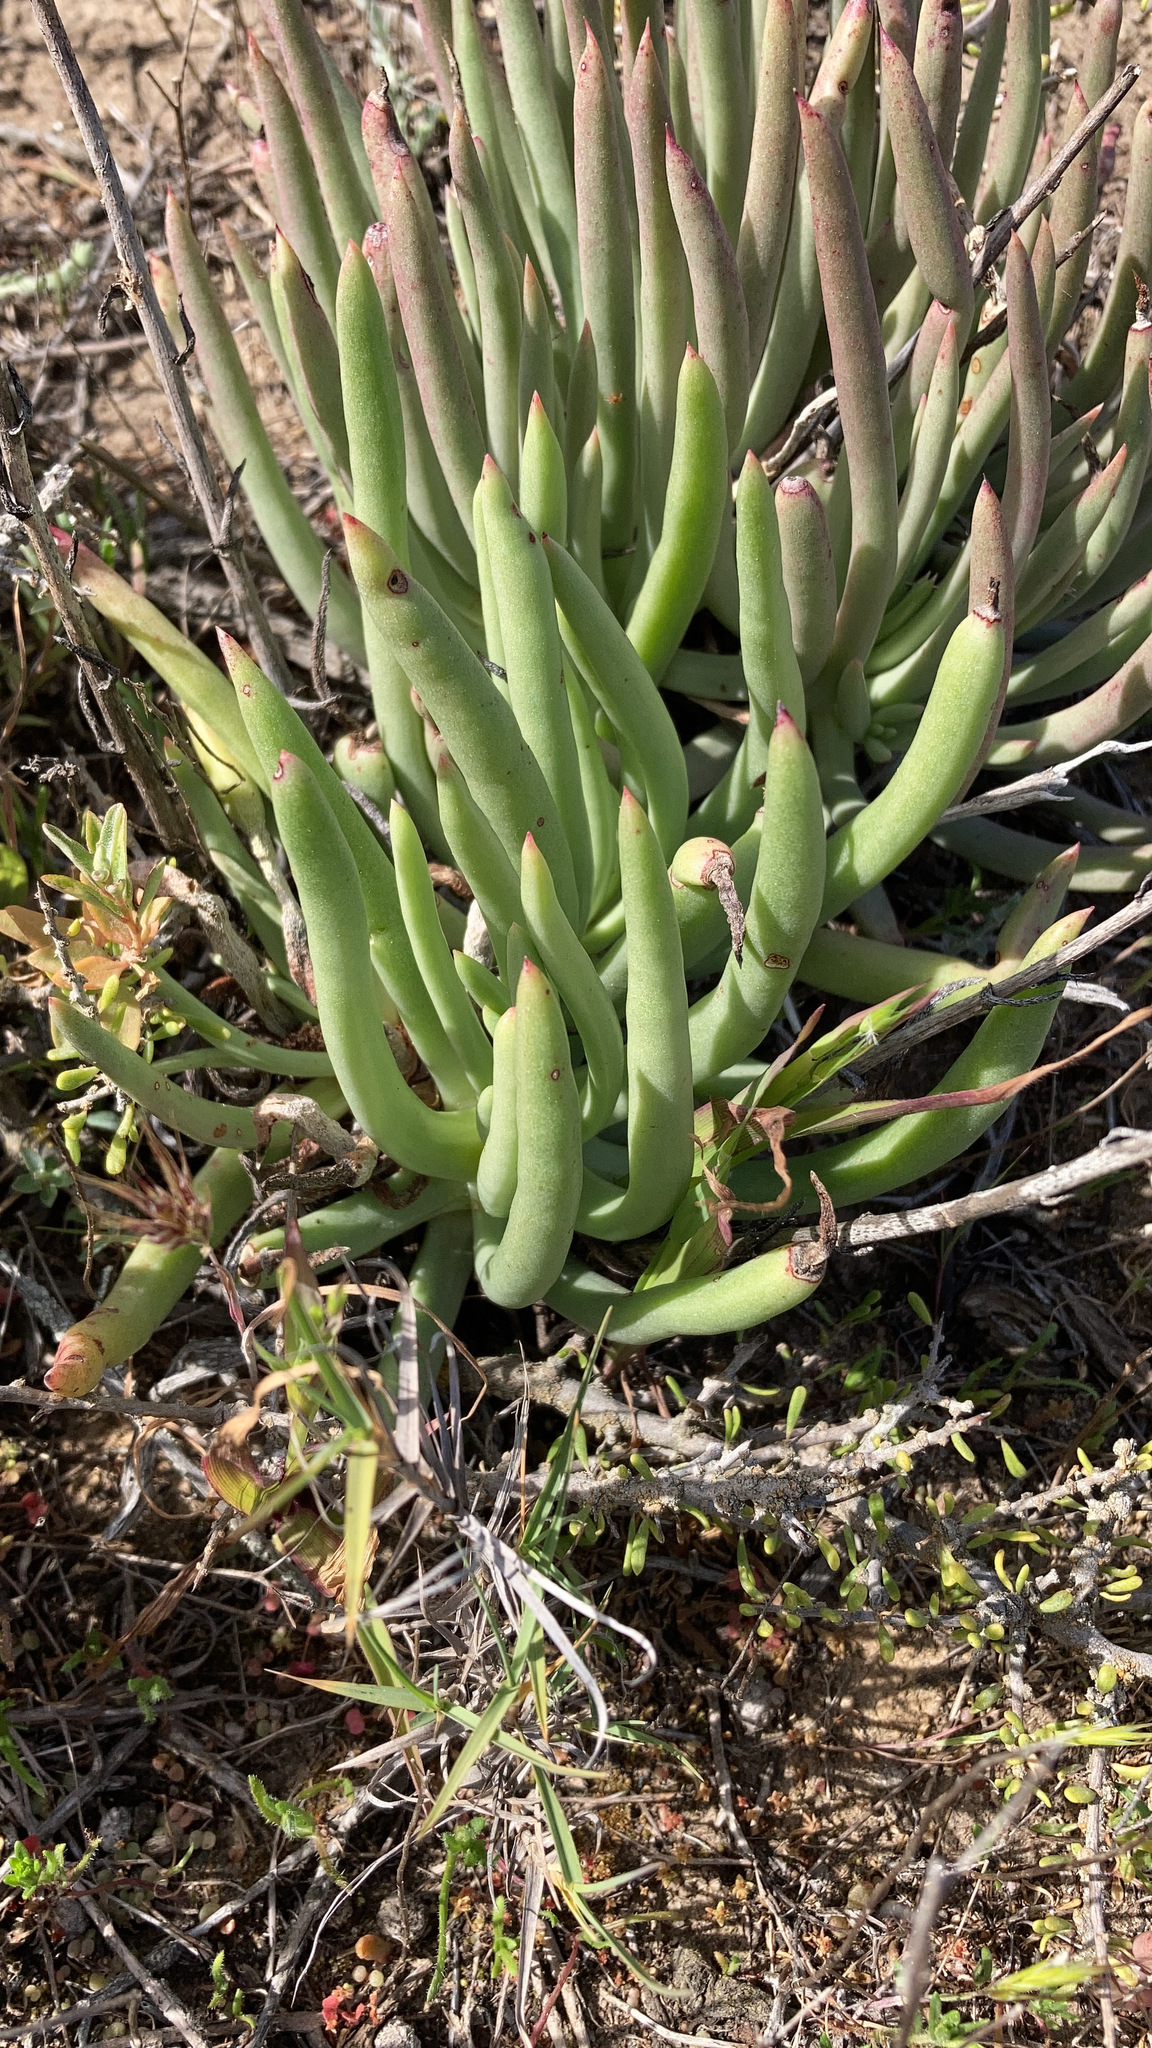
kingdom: Plantae
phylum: Tracheophyta
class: Magnoliopsida
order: Saxifragales
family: Crassulaceae
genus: Dudleya
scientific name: Dudleya edulis
